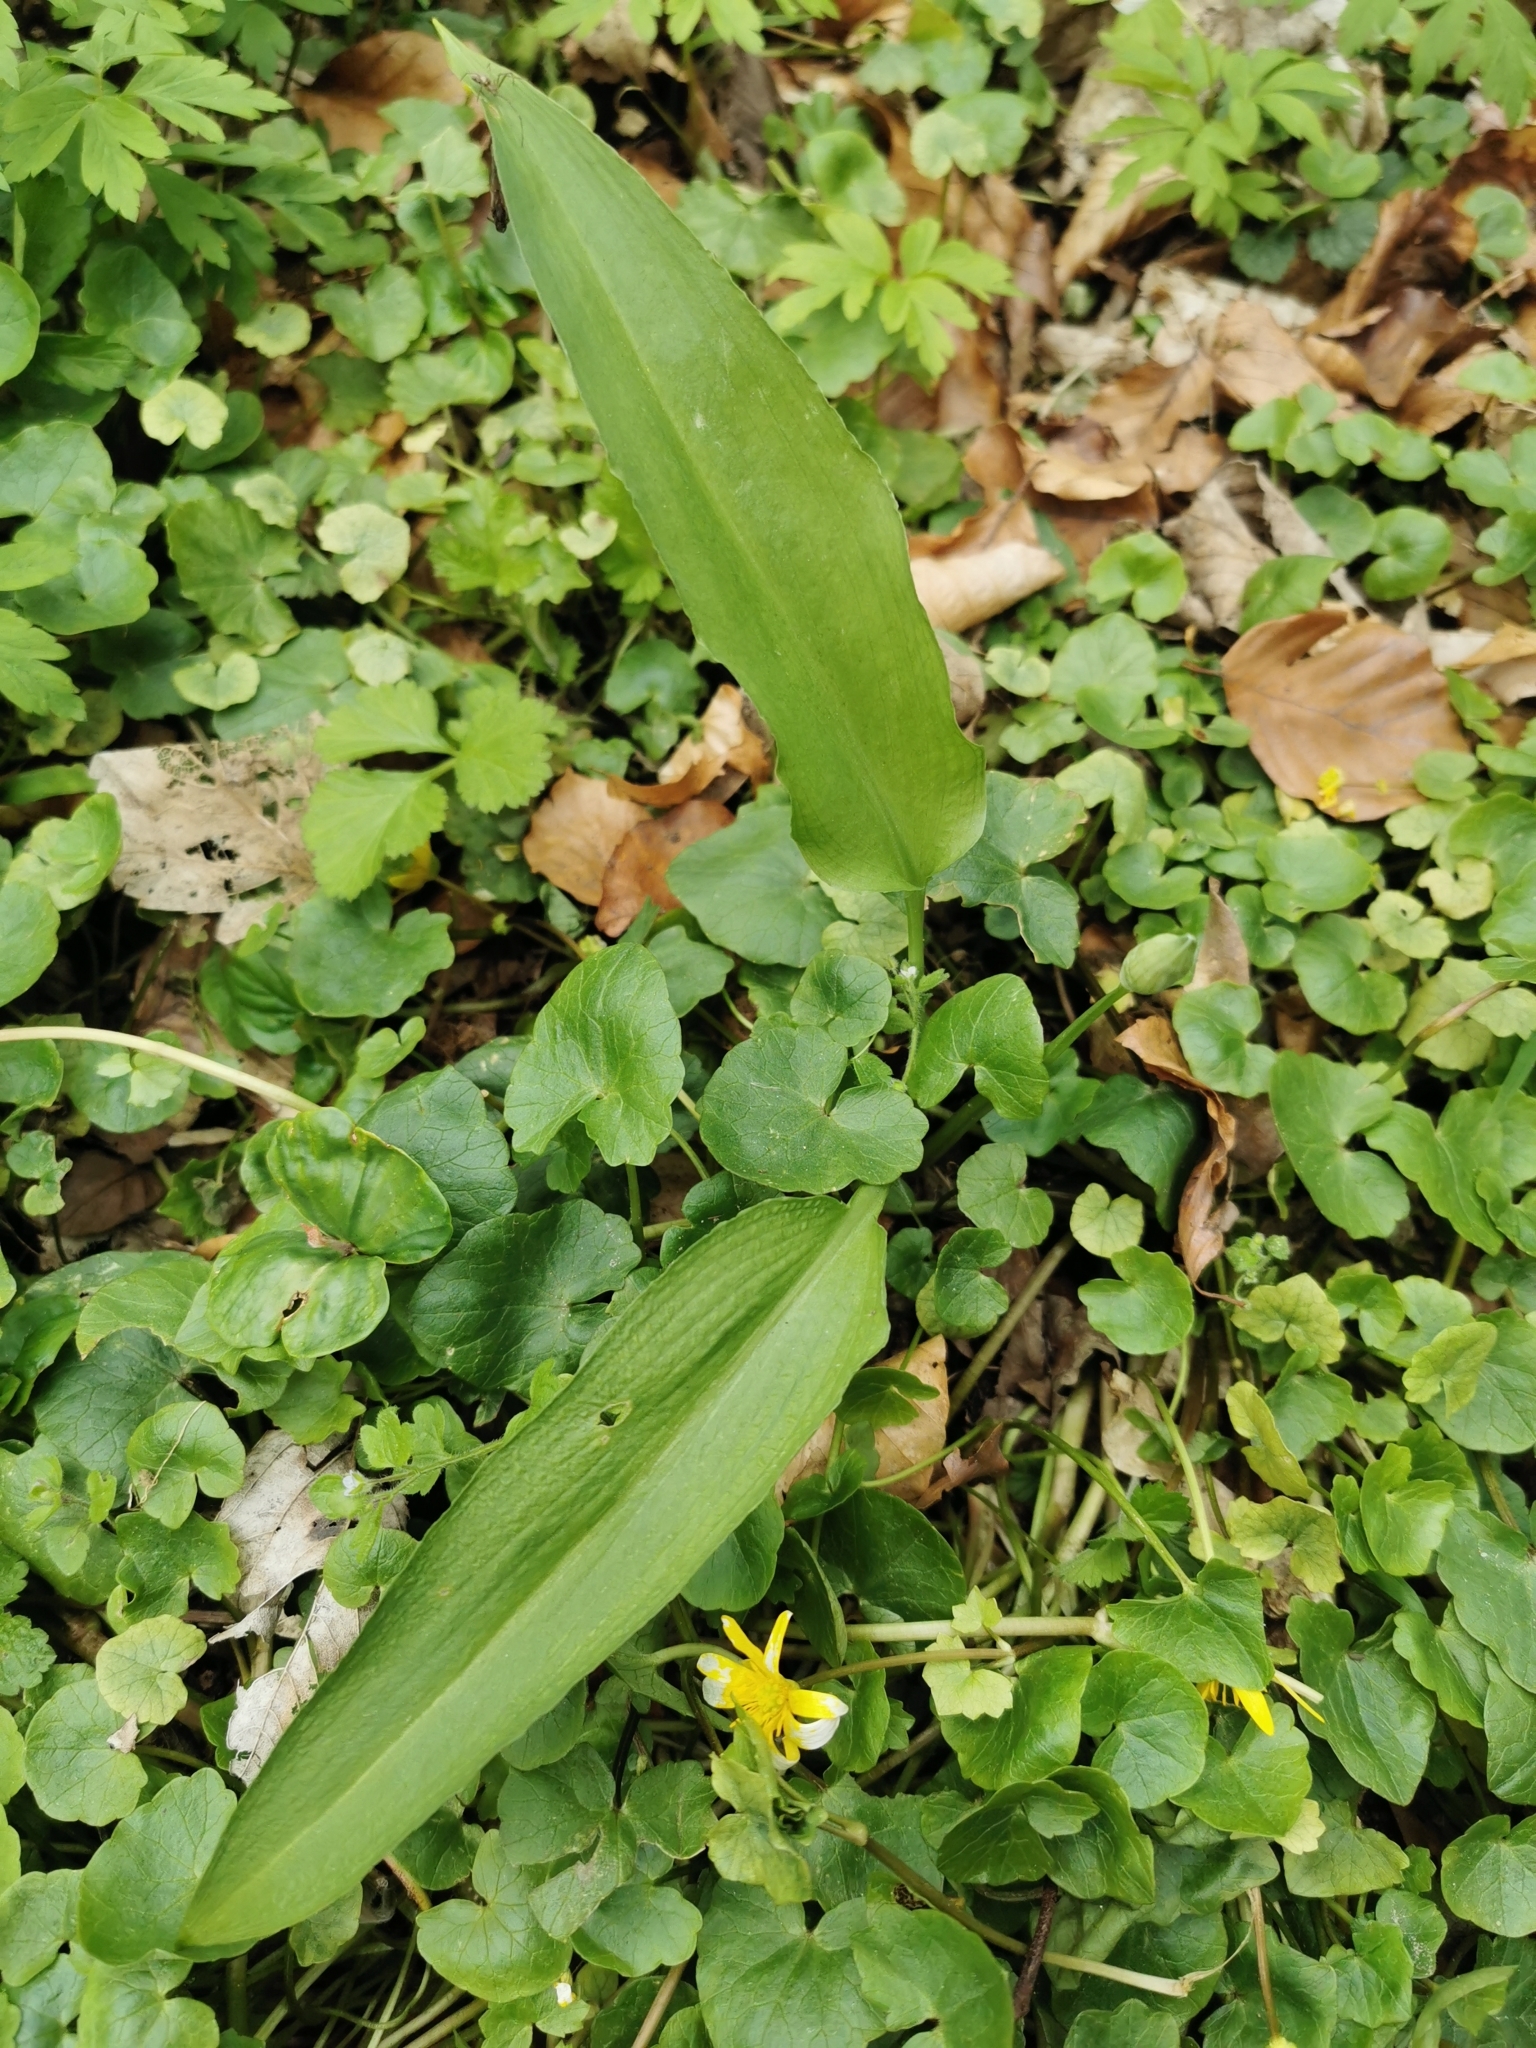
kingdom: Plantae
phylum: Tracheophyta
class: Liliopsida
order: Asparagales
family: Amaryllidaceae
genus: Allium
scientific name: Allium ursinum
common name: Ramsons
